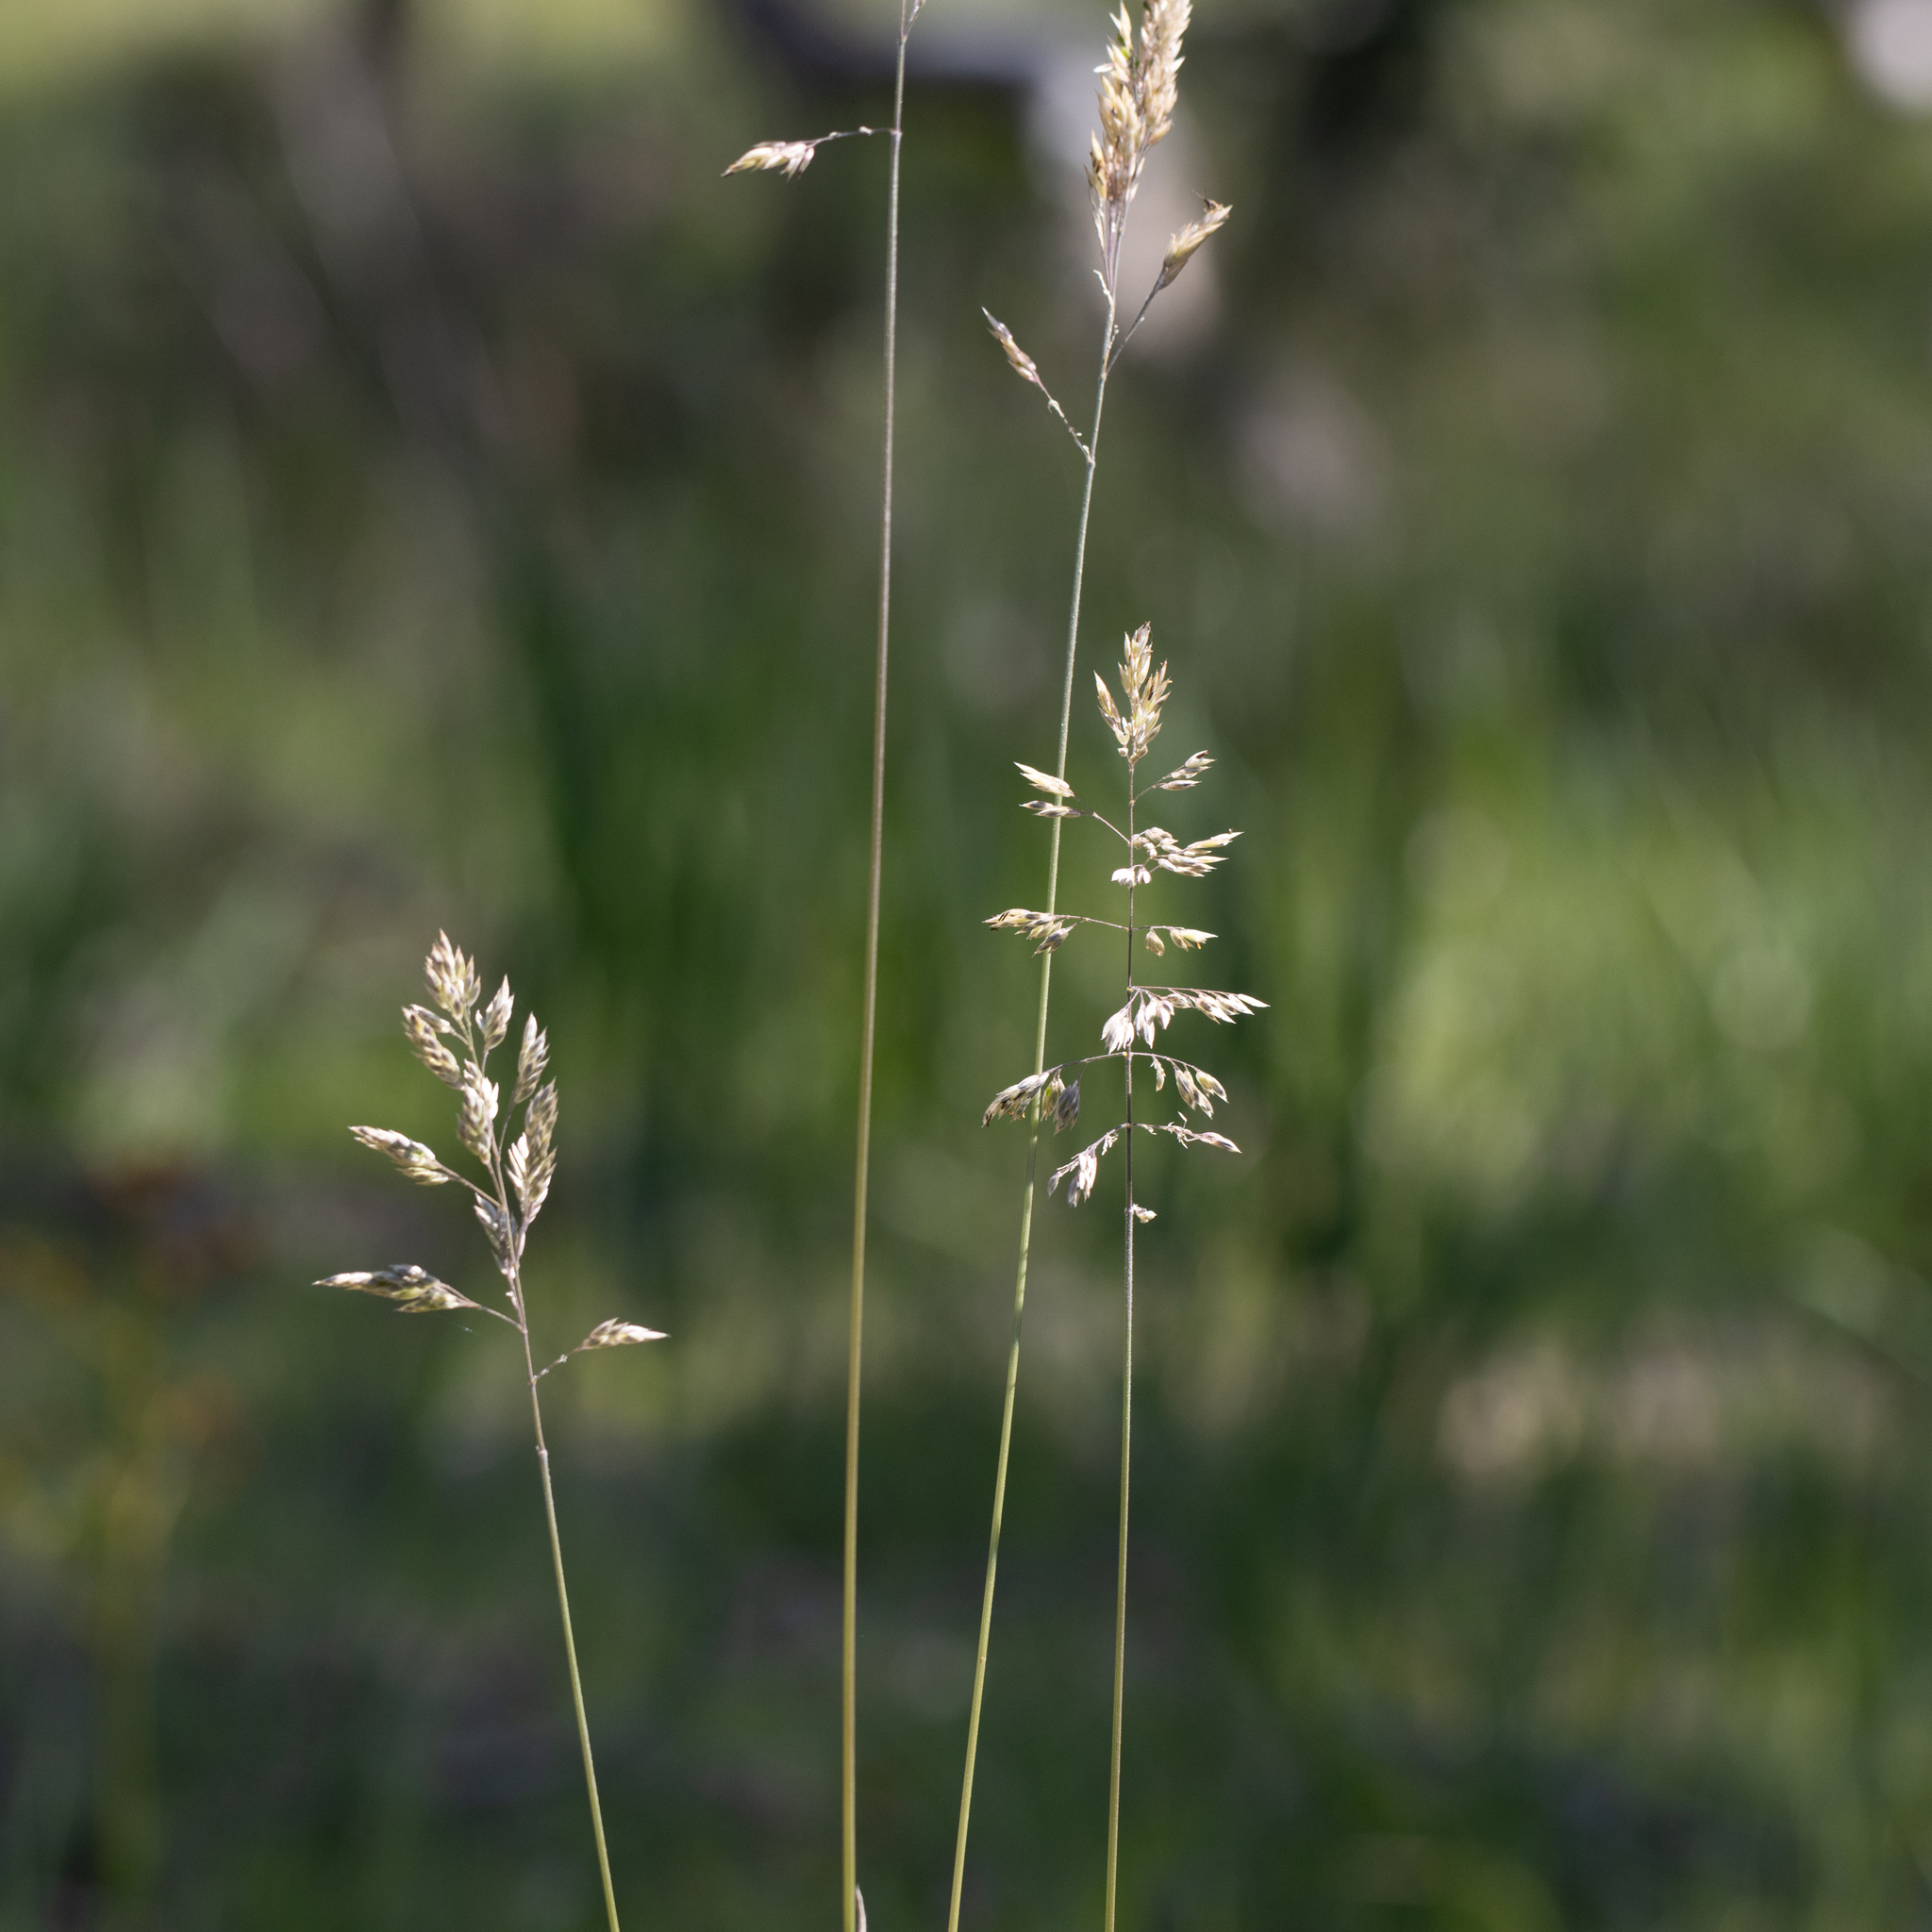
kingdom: Plantae
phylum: Tracheophyta
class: Liliopsida
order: Poales
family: Poaceae
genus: Holcus
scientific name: Holcus lanatus
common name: Yorkshire-fog
